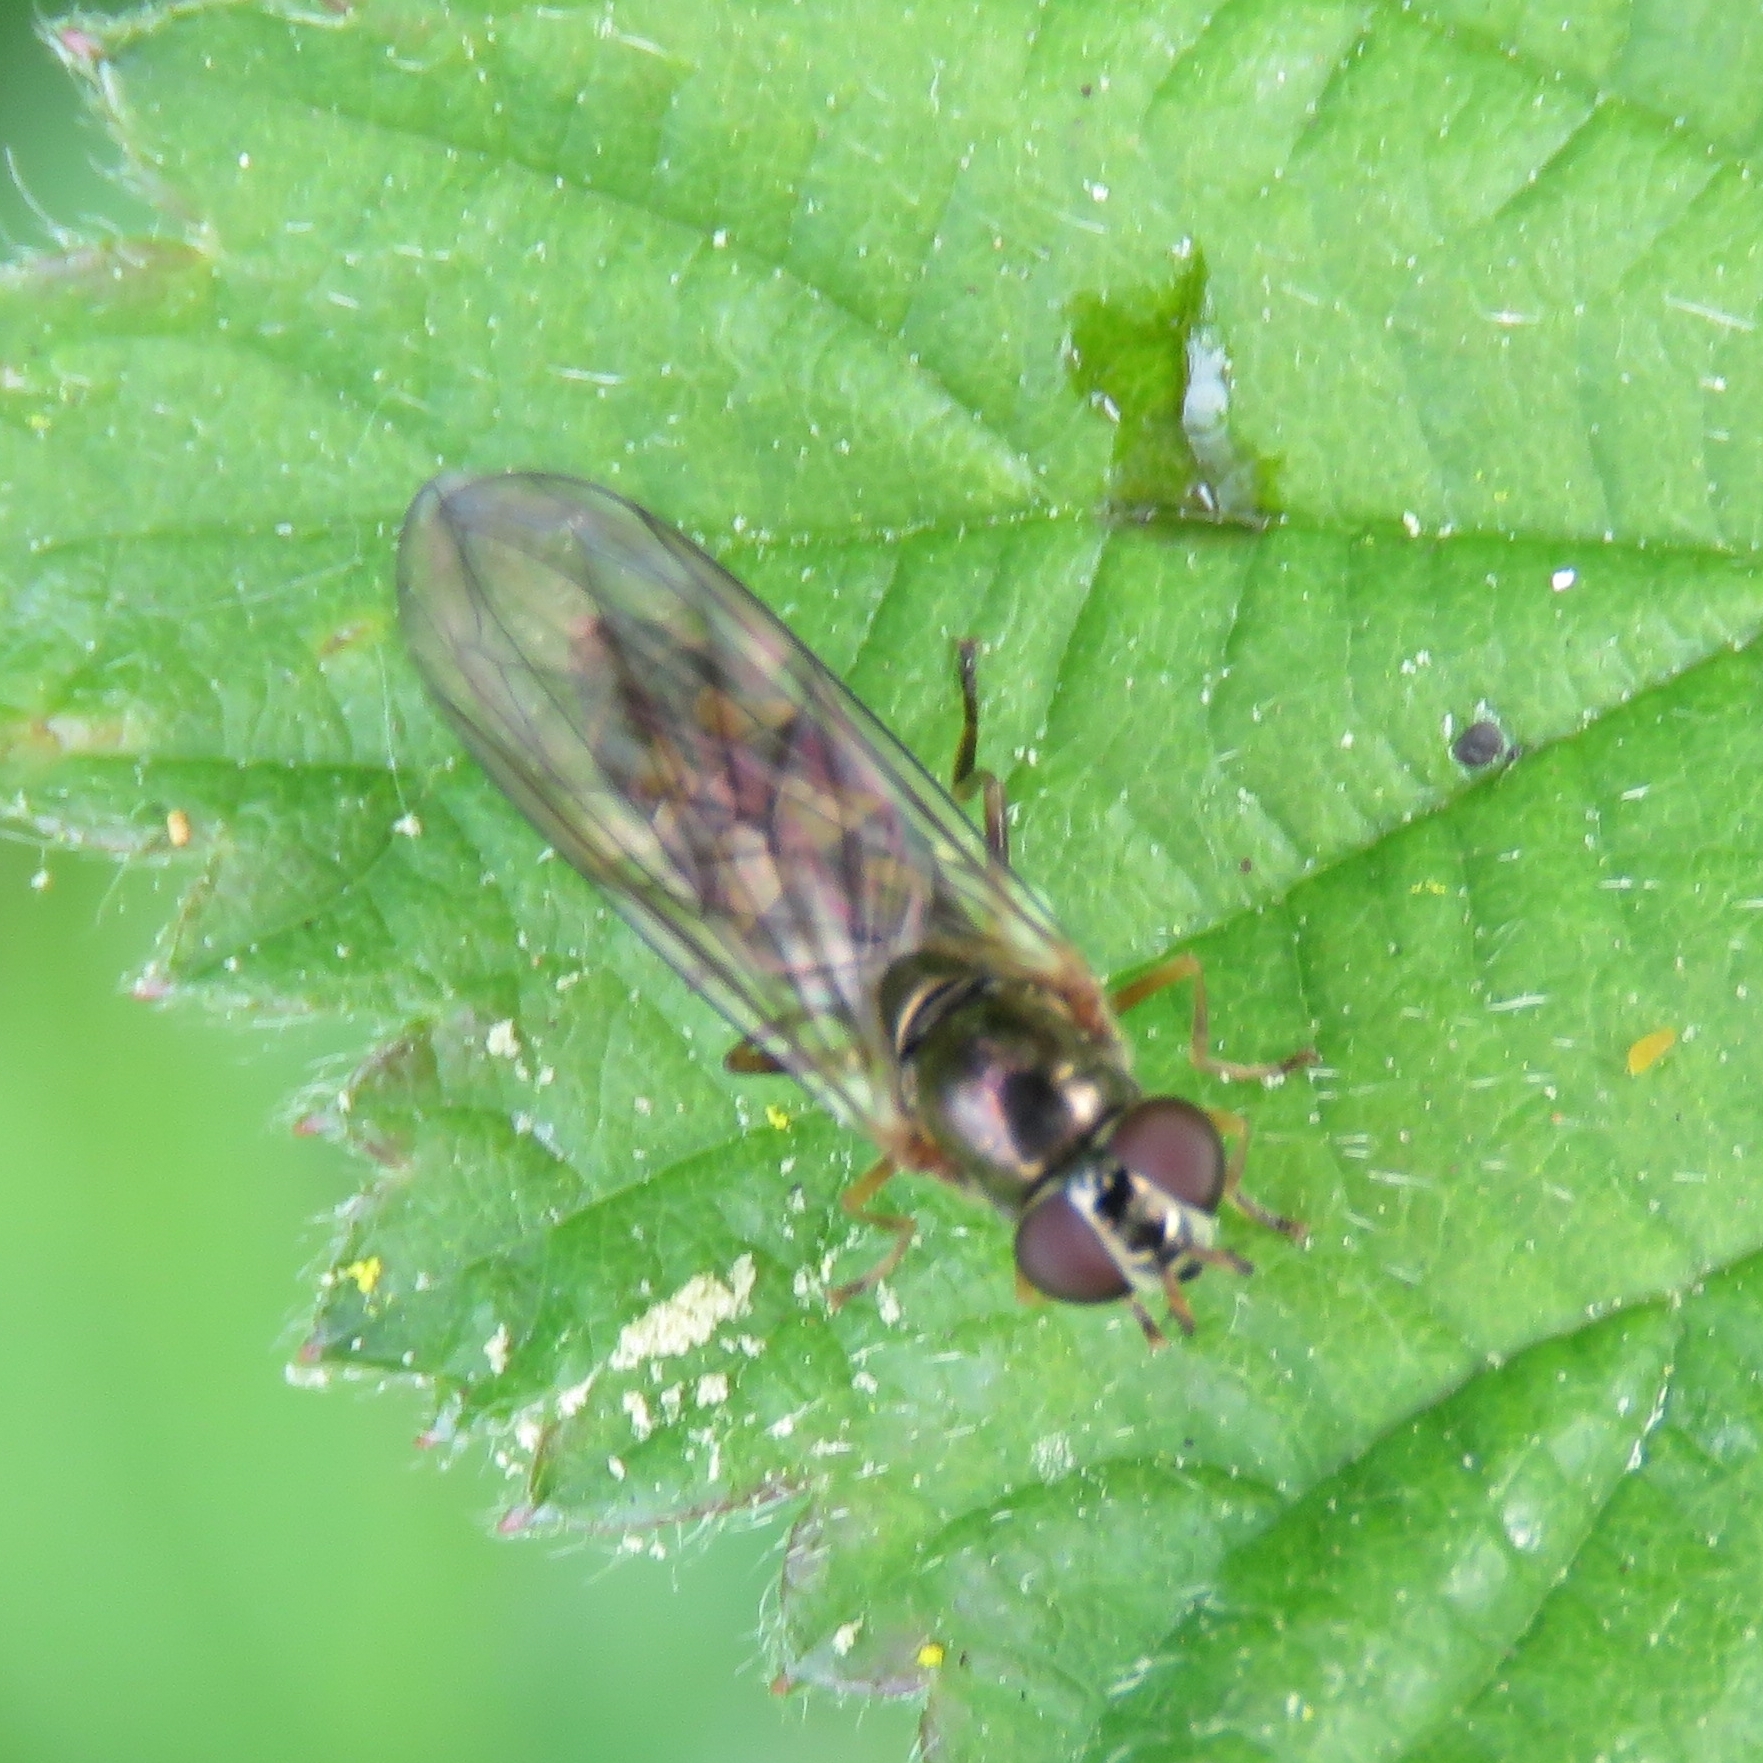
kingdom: Animalia
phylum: Arthropoda
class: Insecta
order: Diptera
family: Syrphidae
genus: Melanostoma
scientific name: Melanostoma scalare
